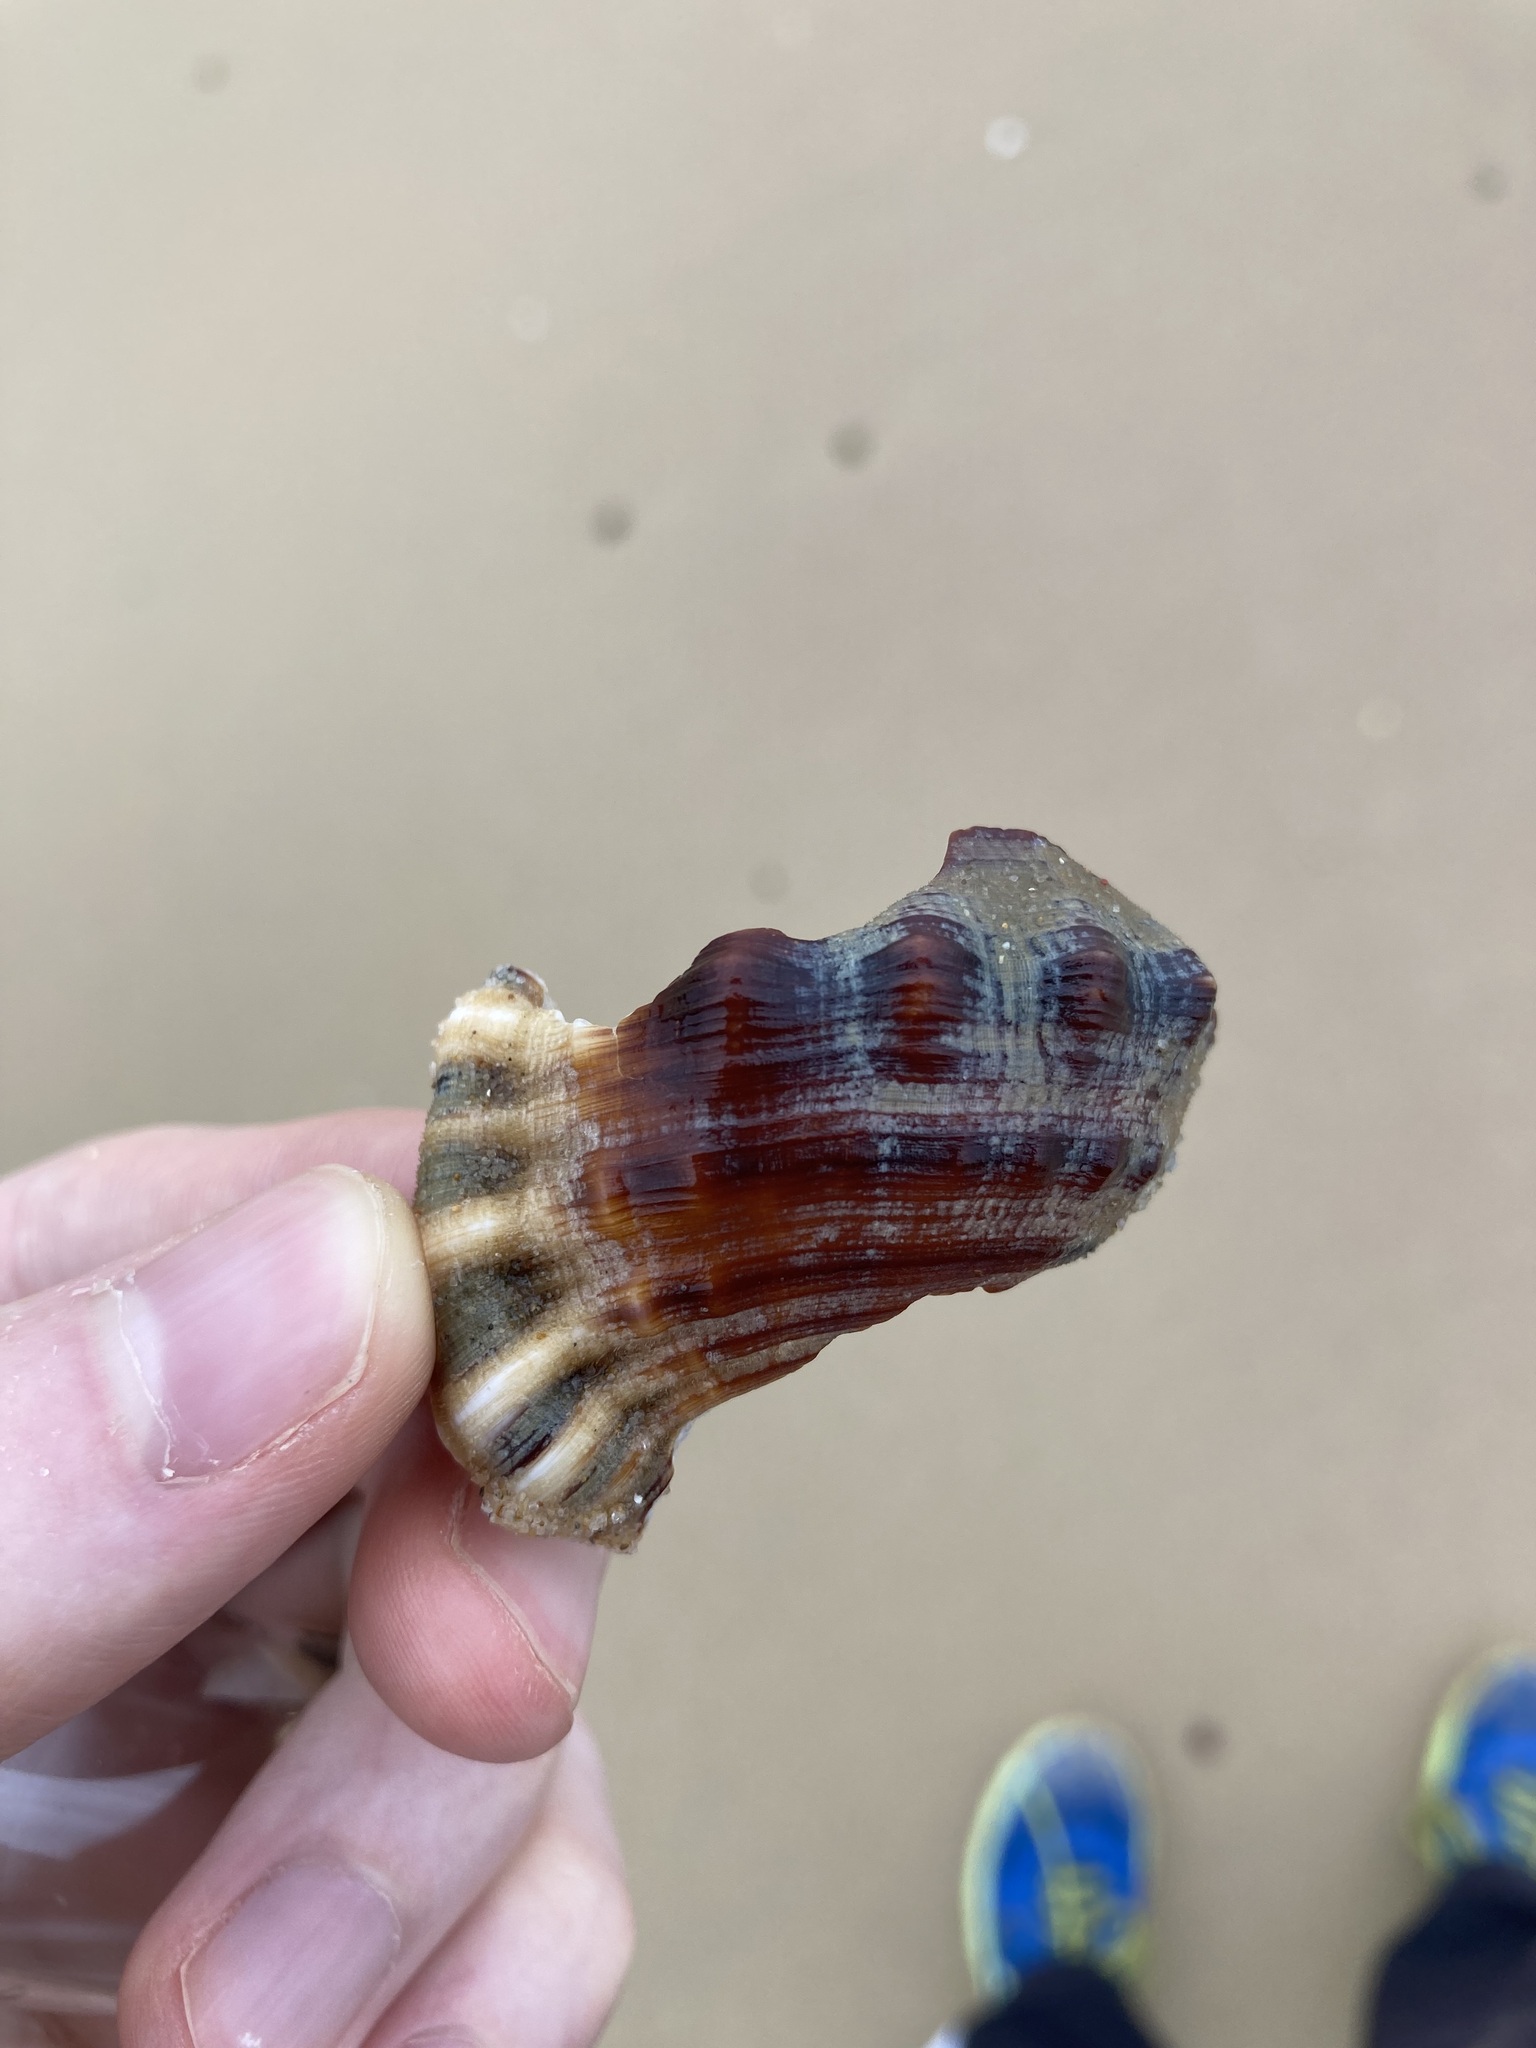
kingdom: Animalia
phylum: Mollusca
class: Gastropoda
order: Littorinimorpha
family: Ranellidae
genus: Ranella
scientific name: Ranella australasia
